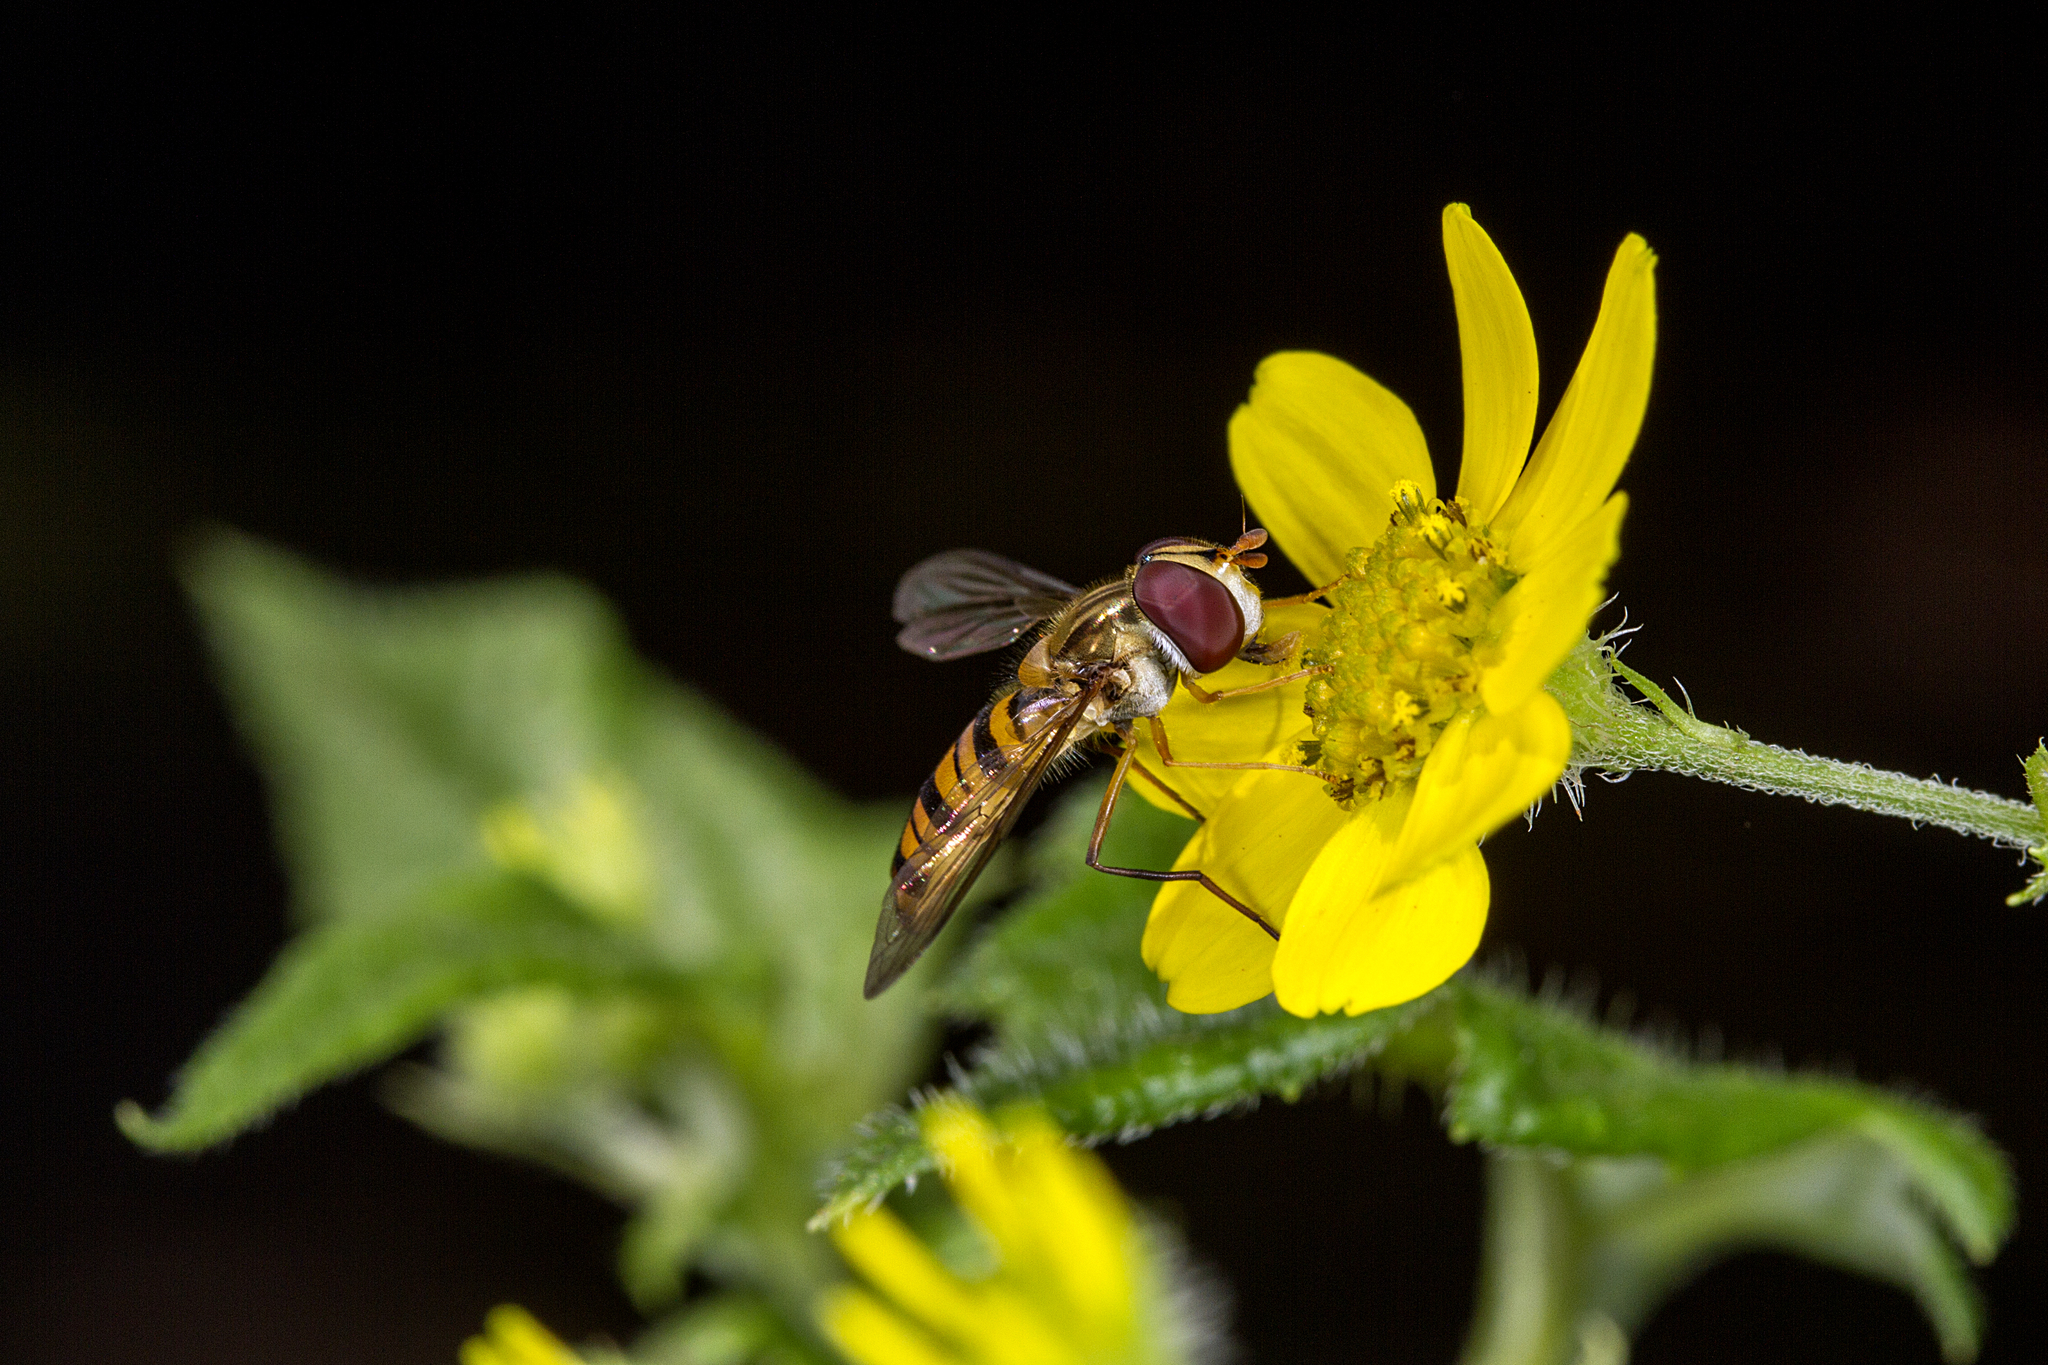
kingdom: Animalia
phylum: Arthropoda
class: Insecta
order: Diptera
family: Syrphidae
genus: Episyrphus
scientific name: Episyrphus viridaureus
